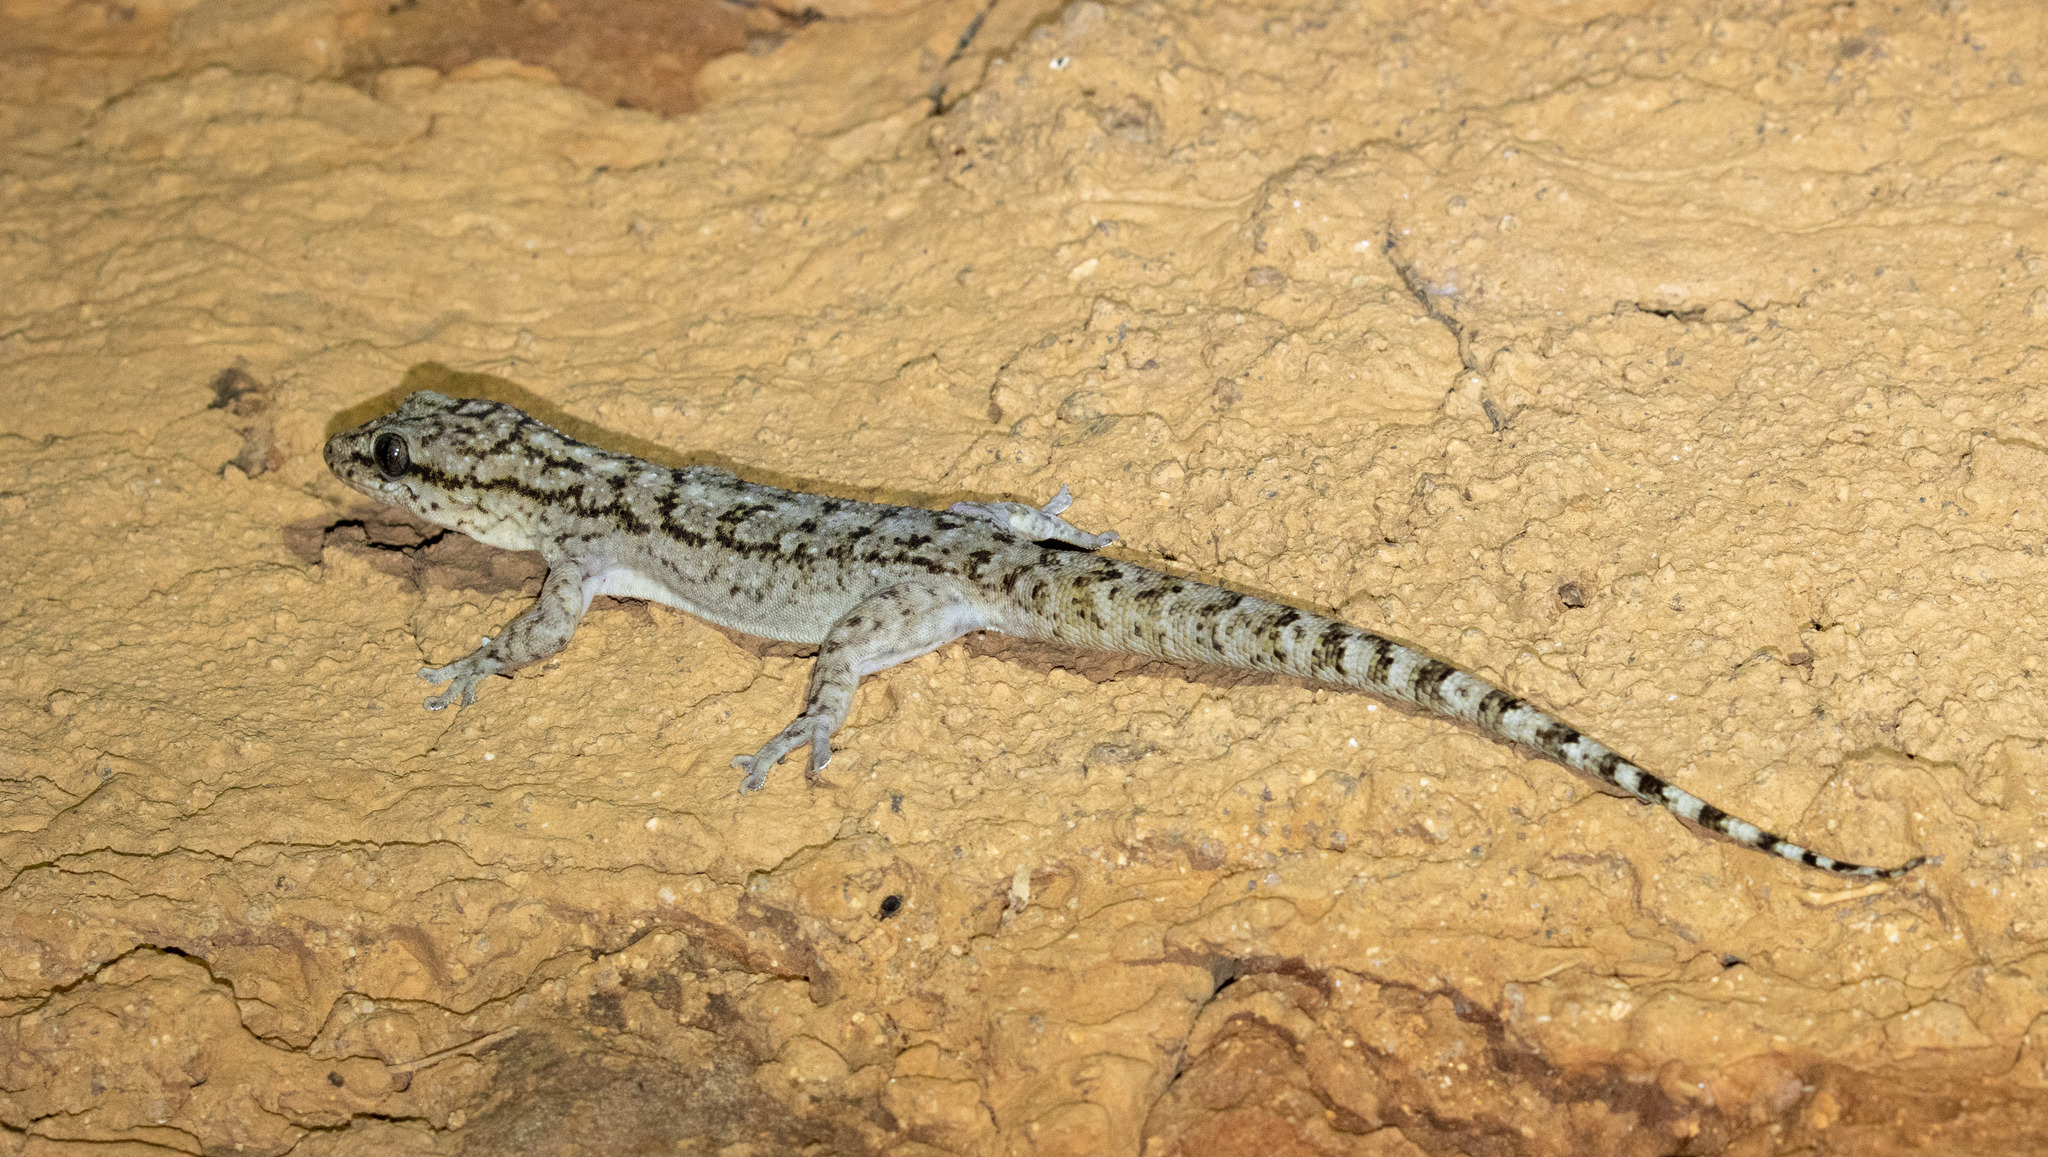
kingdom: Animalia
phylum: Chordata
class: Squamata
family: Phyllodactylidae
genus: Phyllopezus
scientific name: Phyllopezus pollicaris
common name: Brazilian gecko
